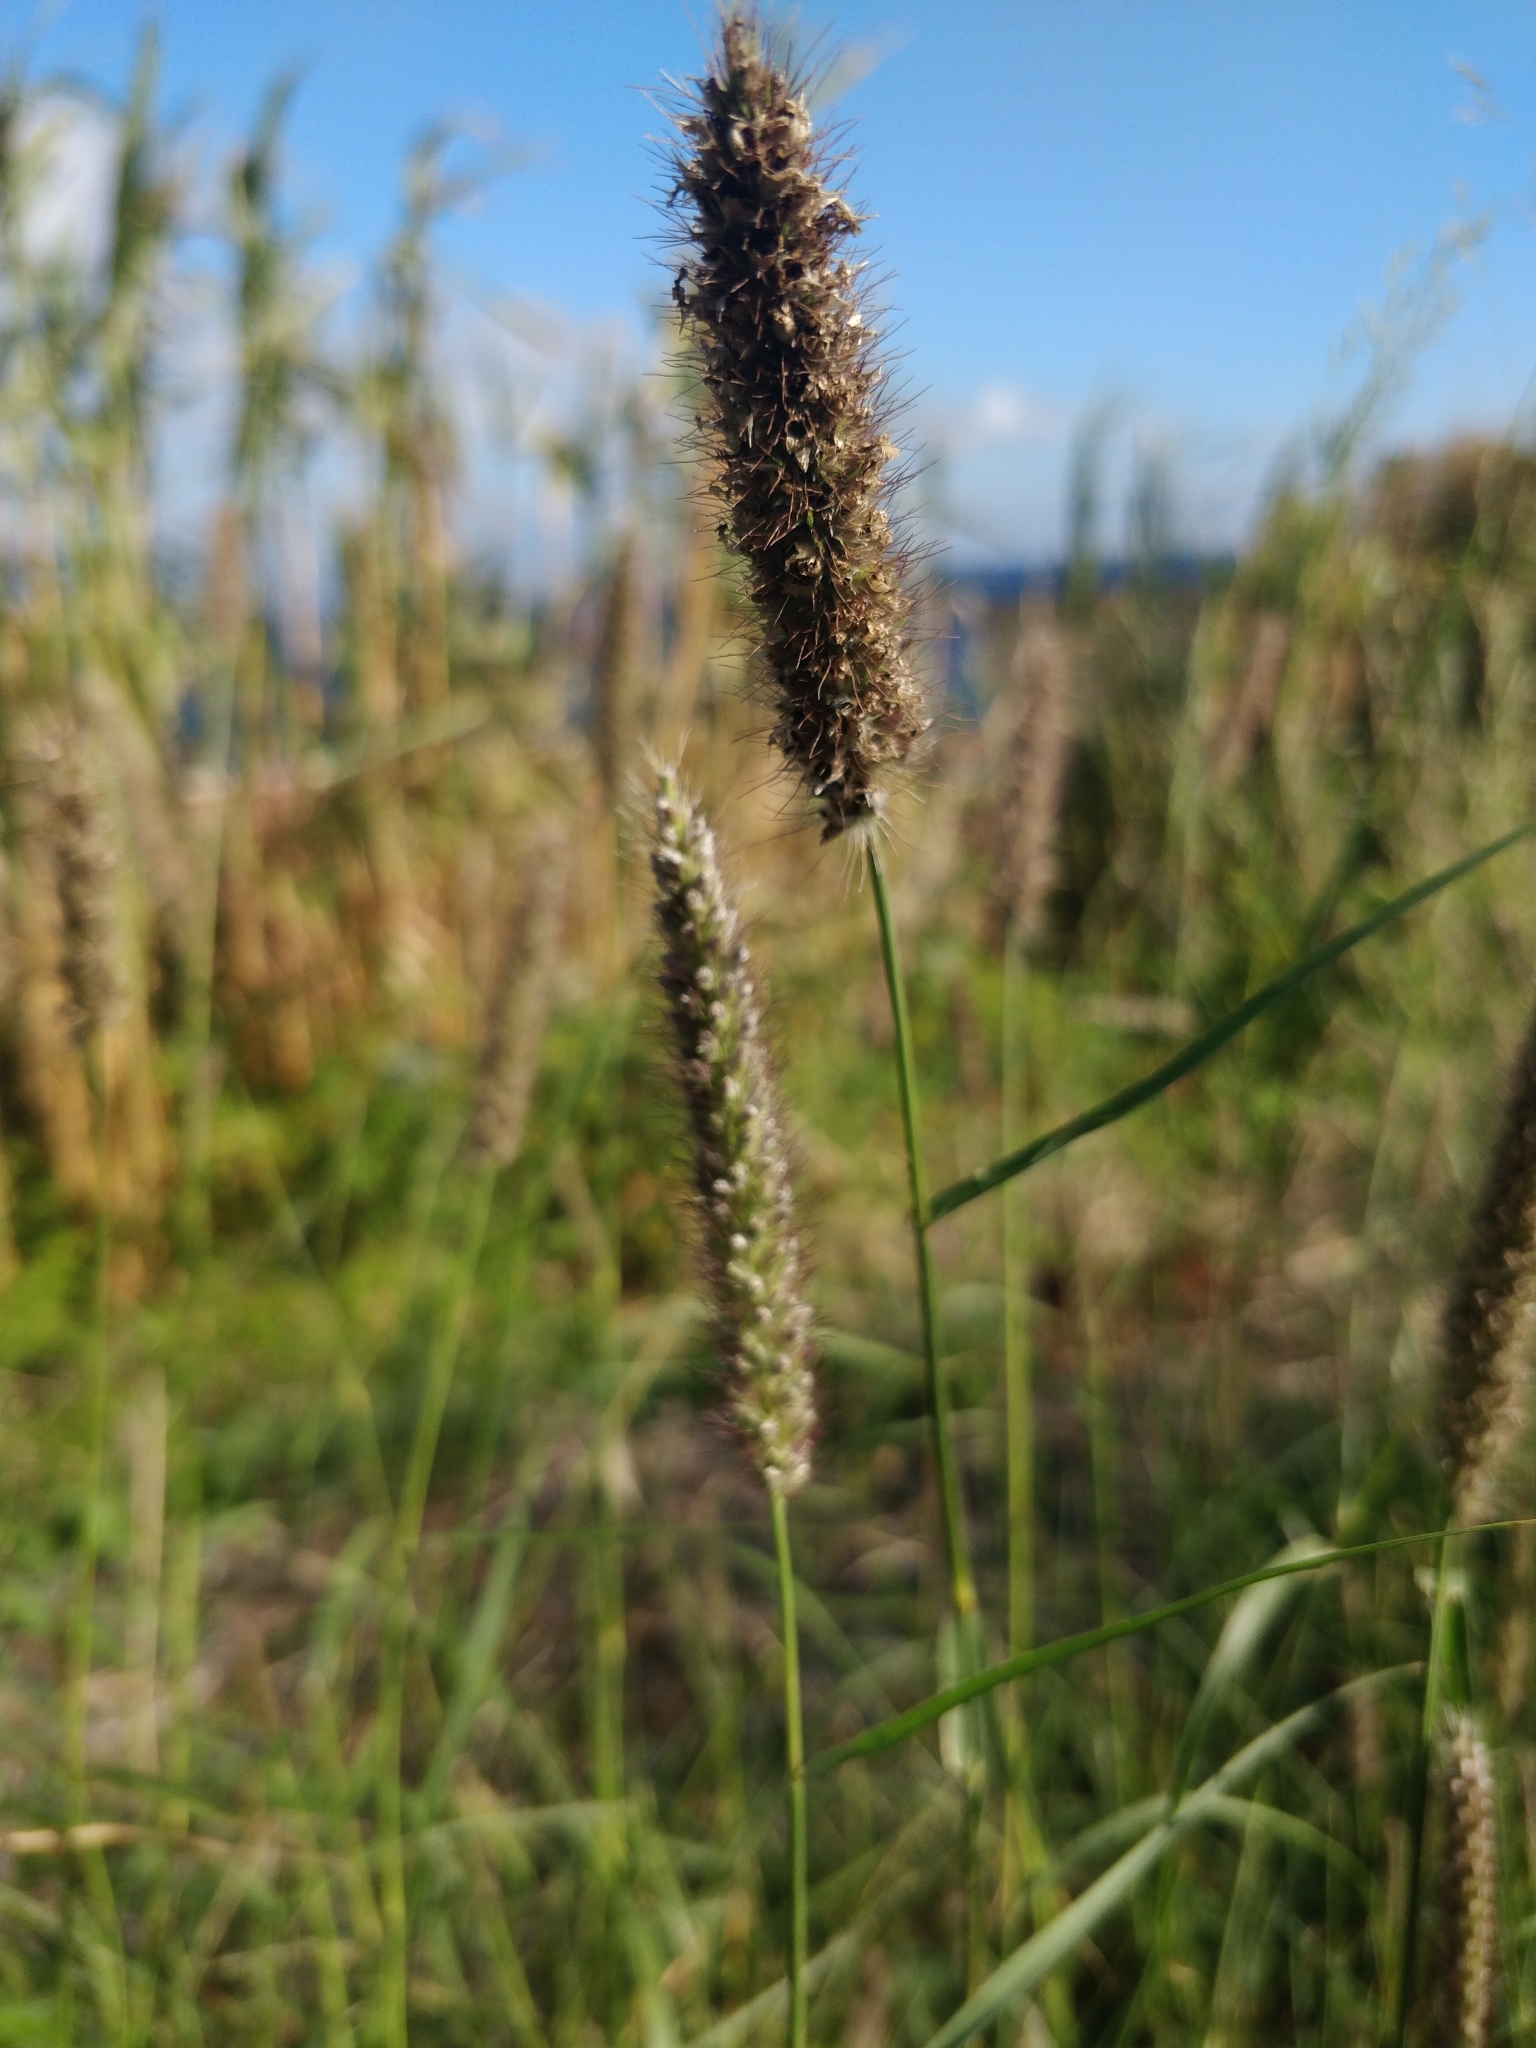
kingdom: Plantae
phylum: Tracheophyta
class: Liliopsida
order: Poales
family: Poaceae
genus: Setaria
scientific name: Setaria pumila
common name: Yellow bristle-grass
